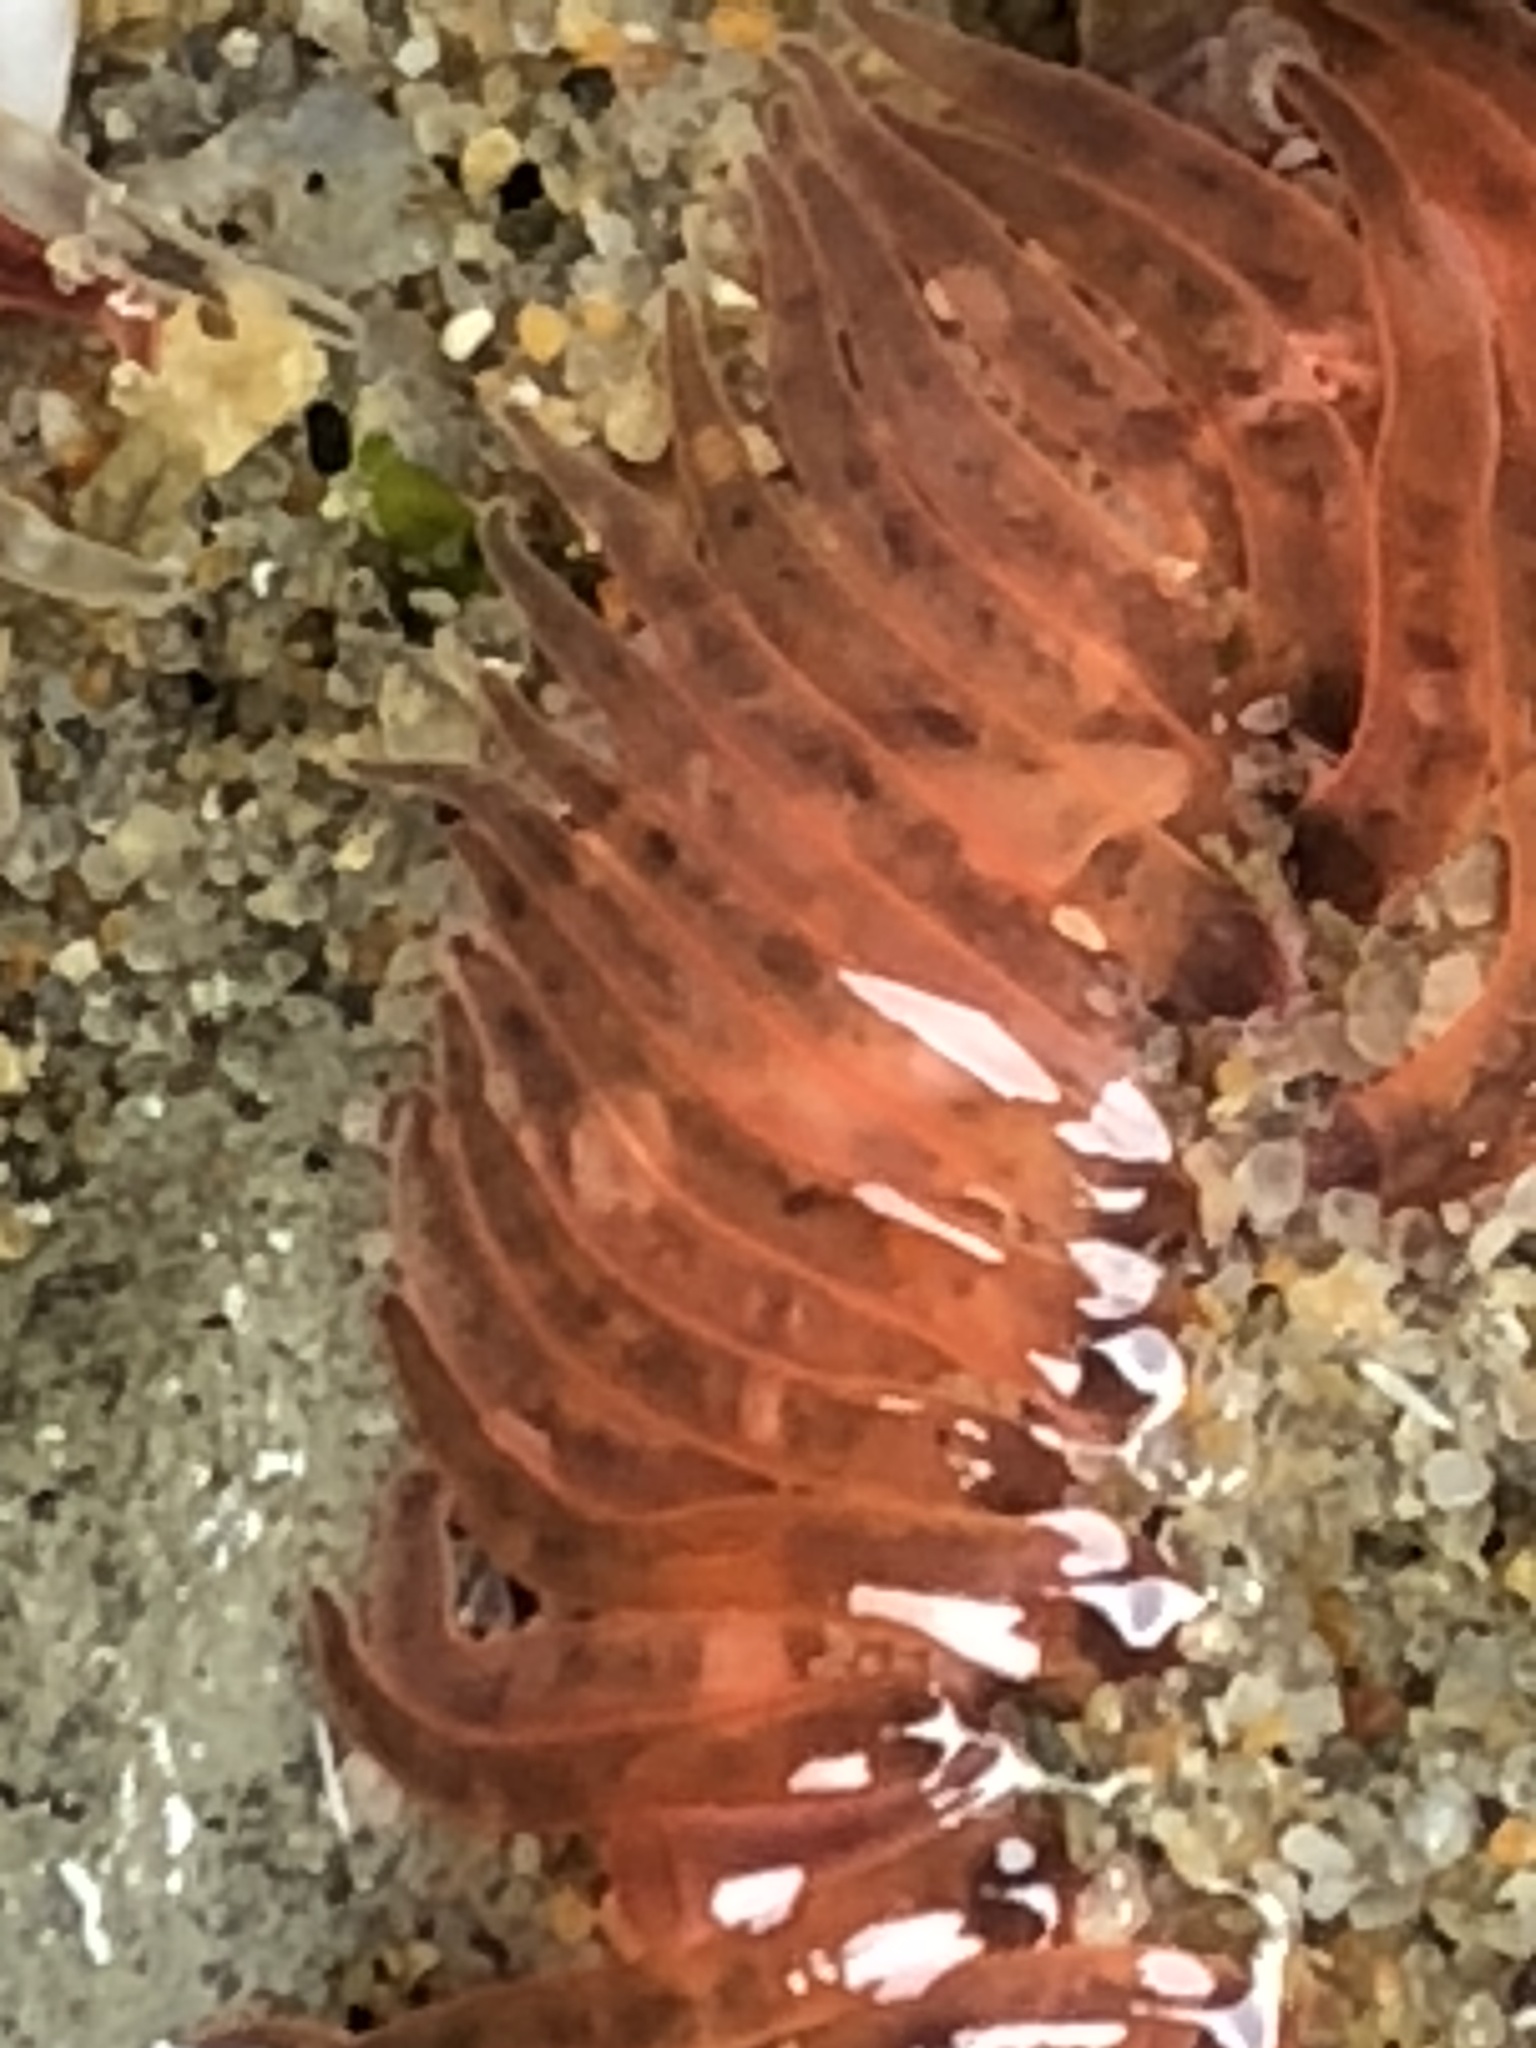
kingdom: Animalia
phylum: Cnidaria
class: Anthozoa
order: Actiniaria
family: Actiniidae
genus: Anthopleura
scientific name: Anthopleura artemisia
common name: Buried sea anemone
